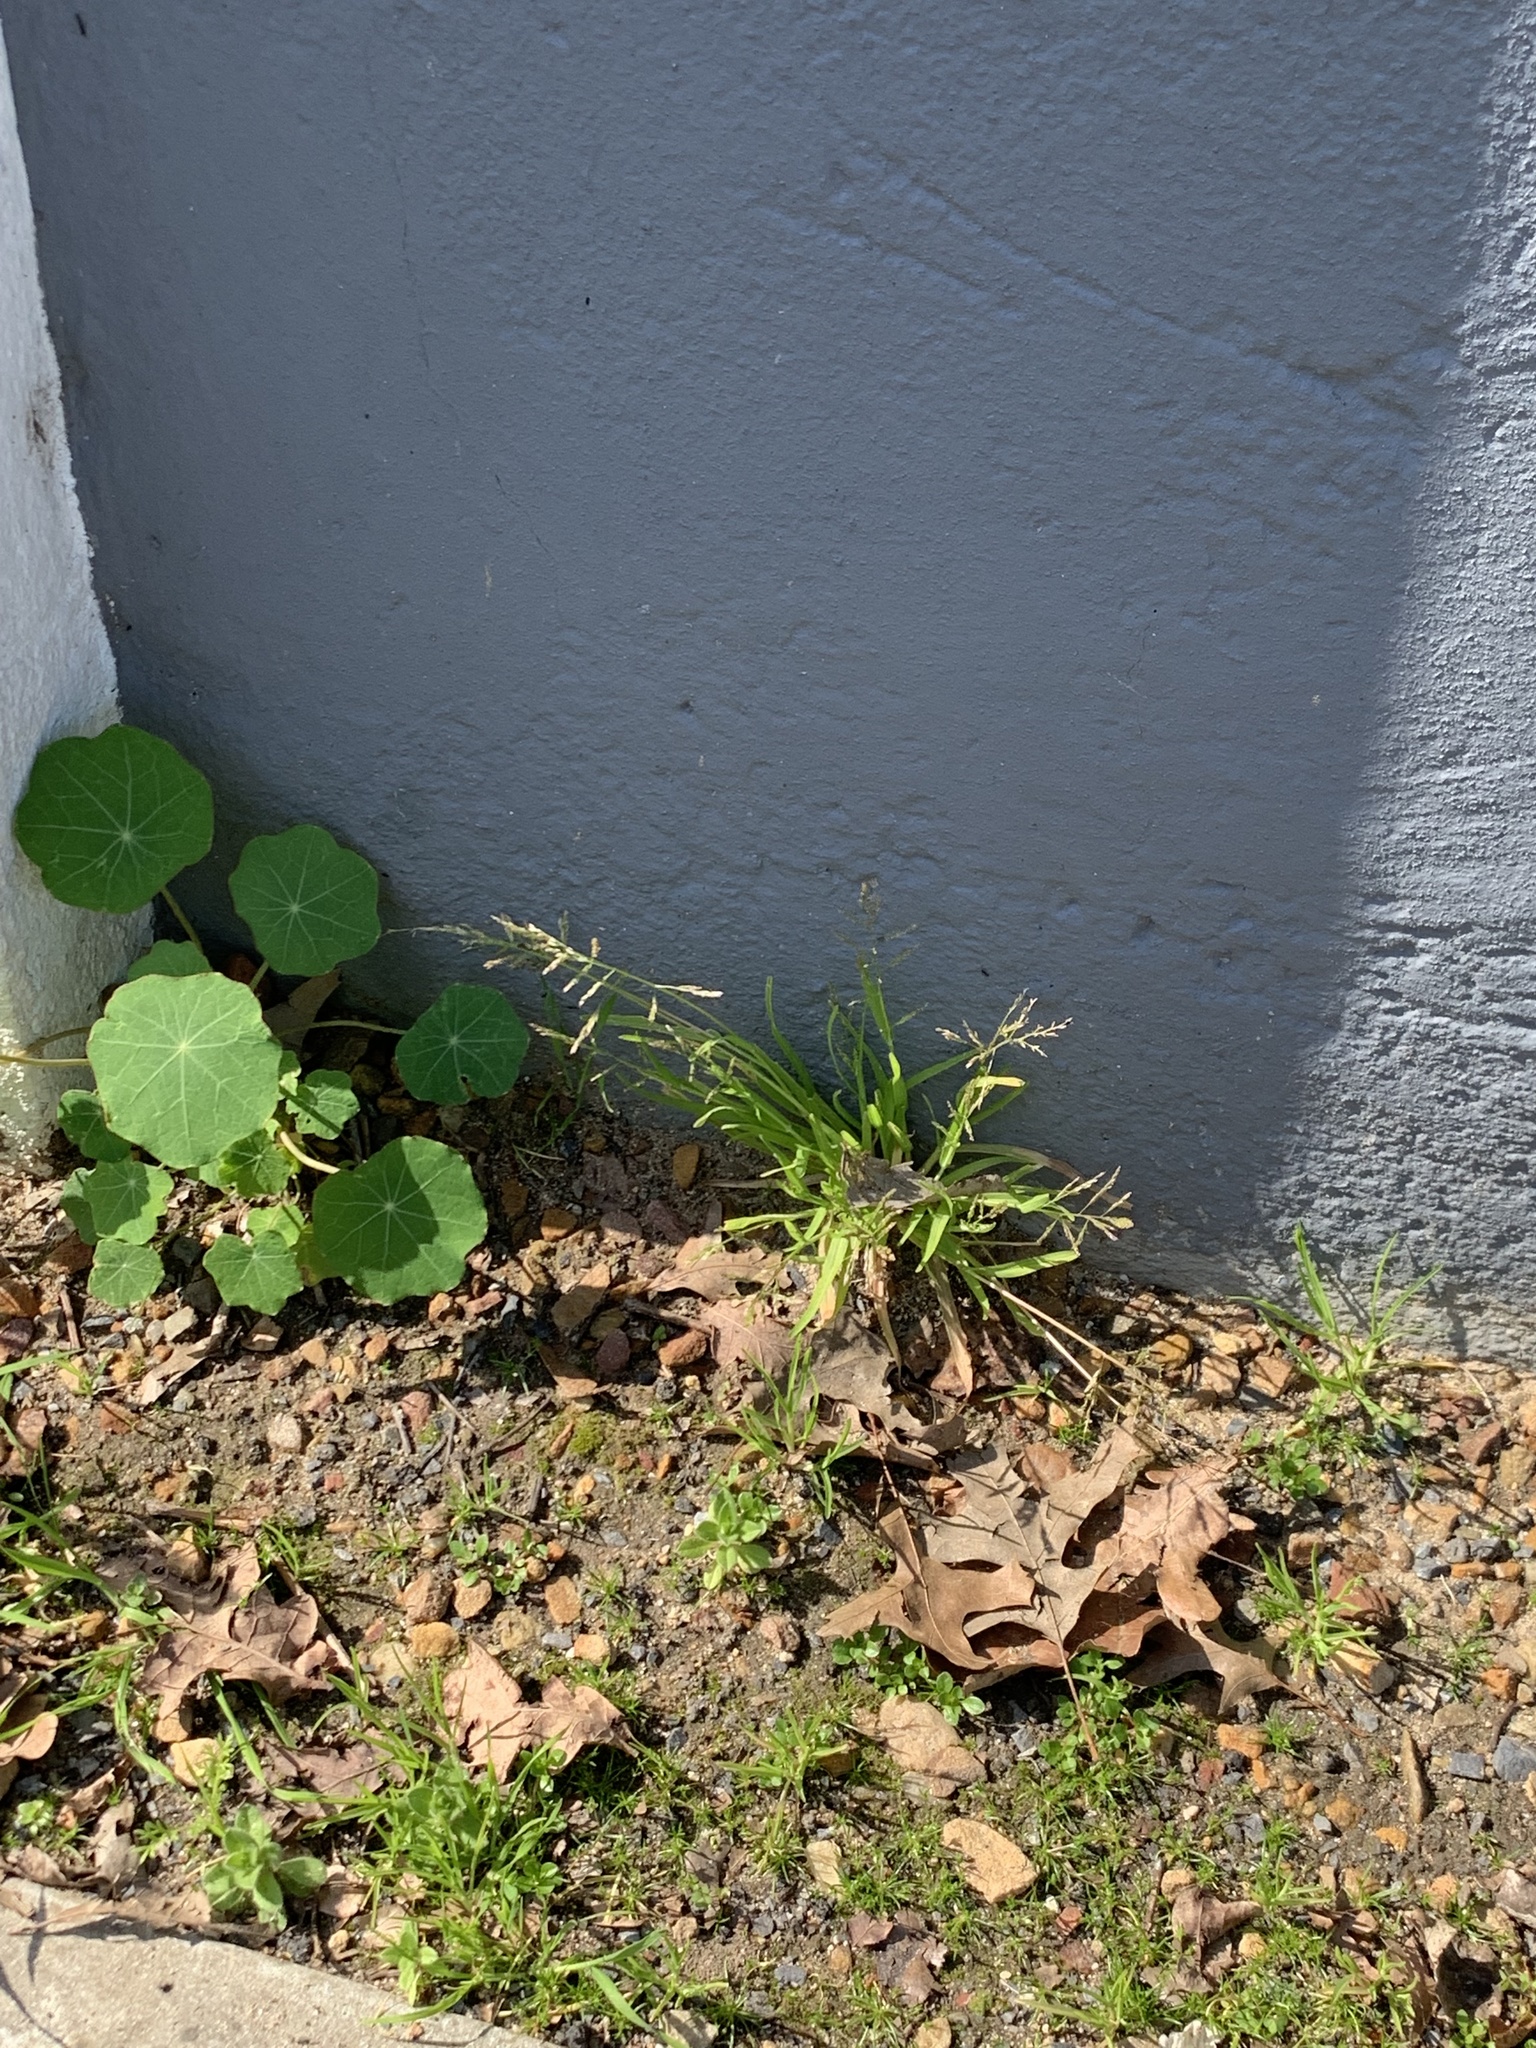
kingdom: Plantae
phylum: Tracheophyta
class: Liliopsida
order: Poales
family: Poaceae
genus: Poa
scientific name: Poa annua
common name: Annual bluegrass
